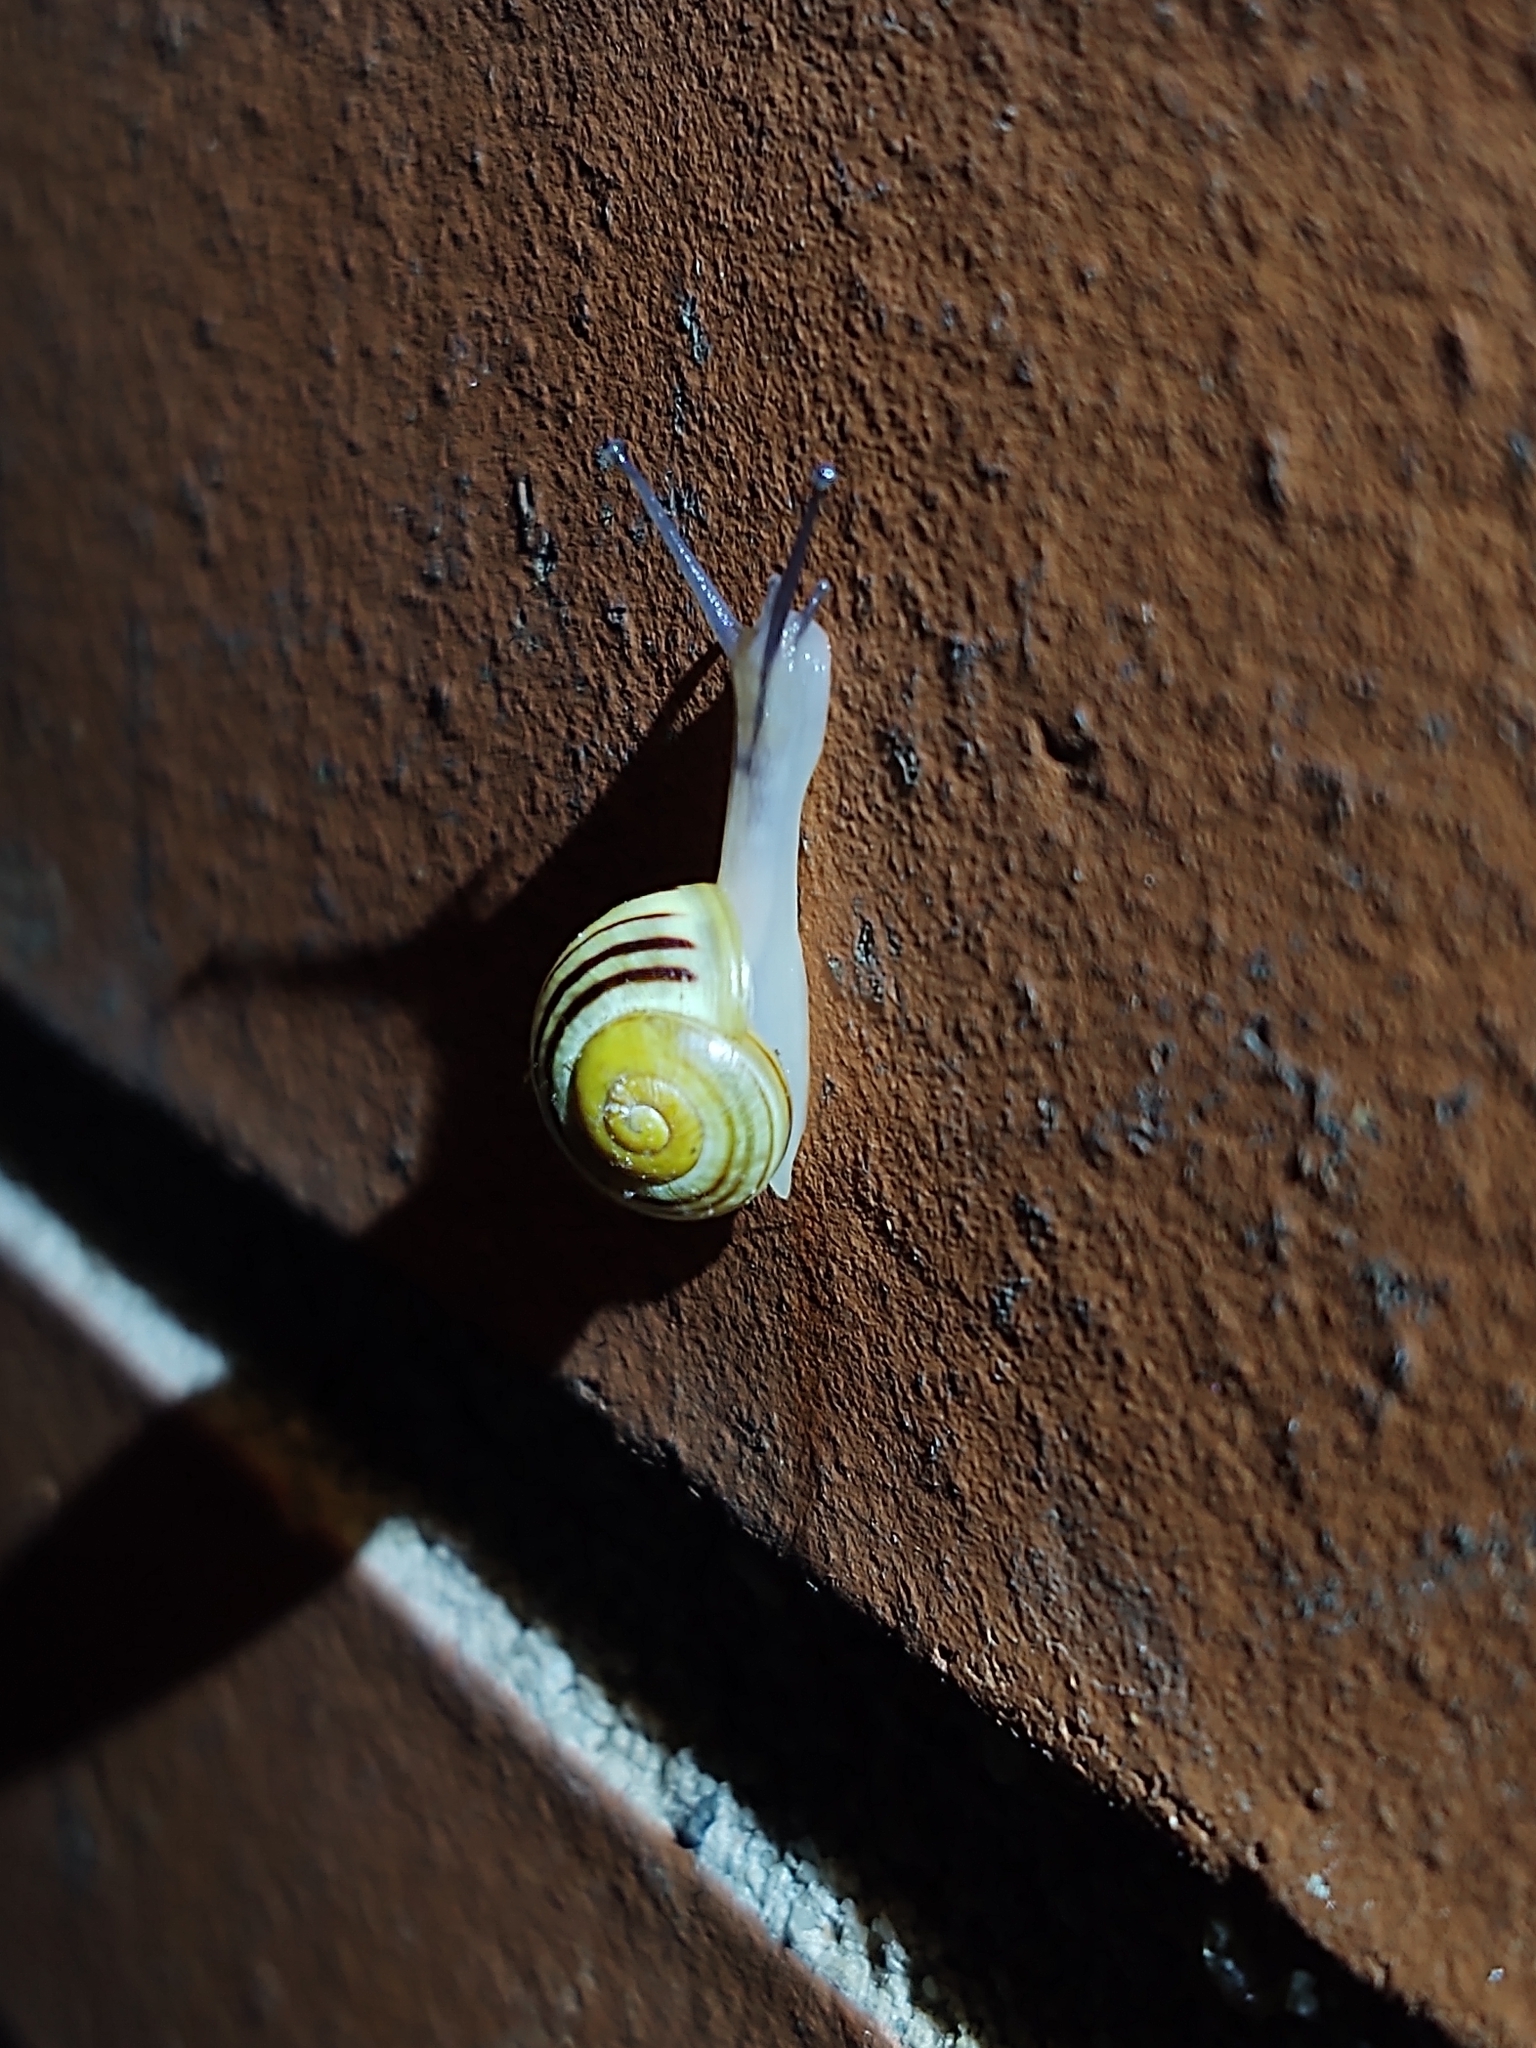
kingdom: Animalia
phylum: Mollusca
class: Gastropoda
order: Stylommatophora
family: Helicidae
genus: Cepaea
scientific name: Cepaea
